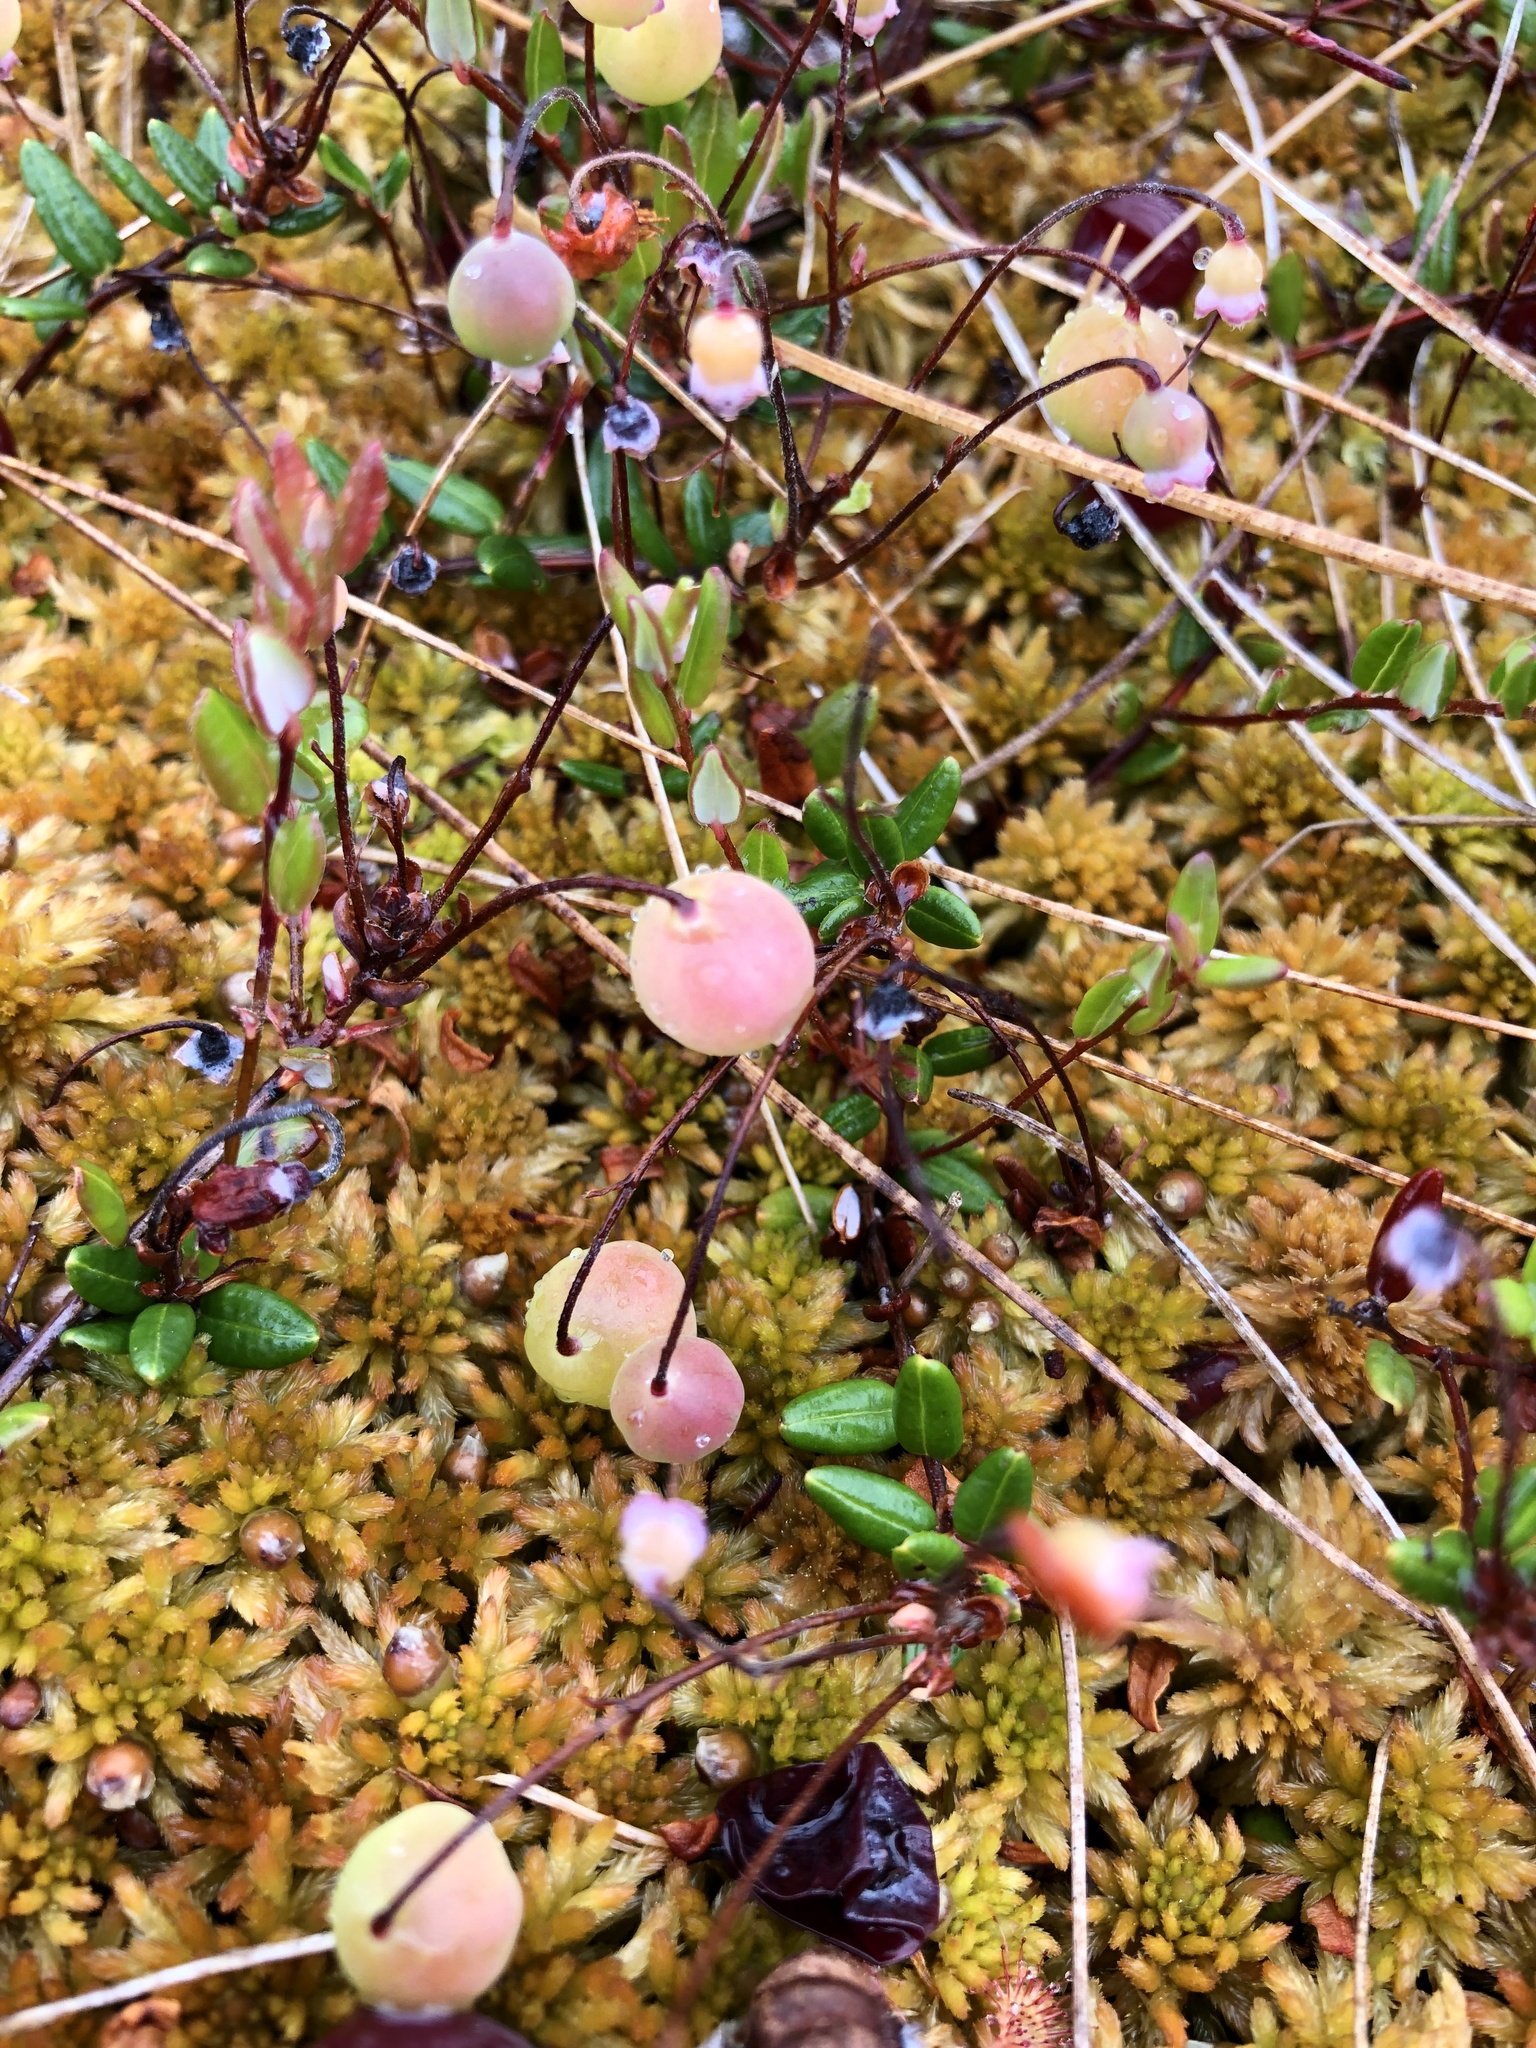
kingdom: Plantae
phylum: Tracheophyta
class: Magnoliopsida
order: Ericales
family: Ericaceae
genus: Vaccinium
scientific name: Vaccinium oxycoccos
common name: Cranberry
